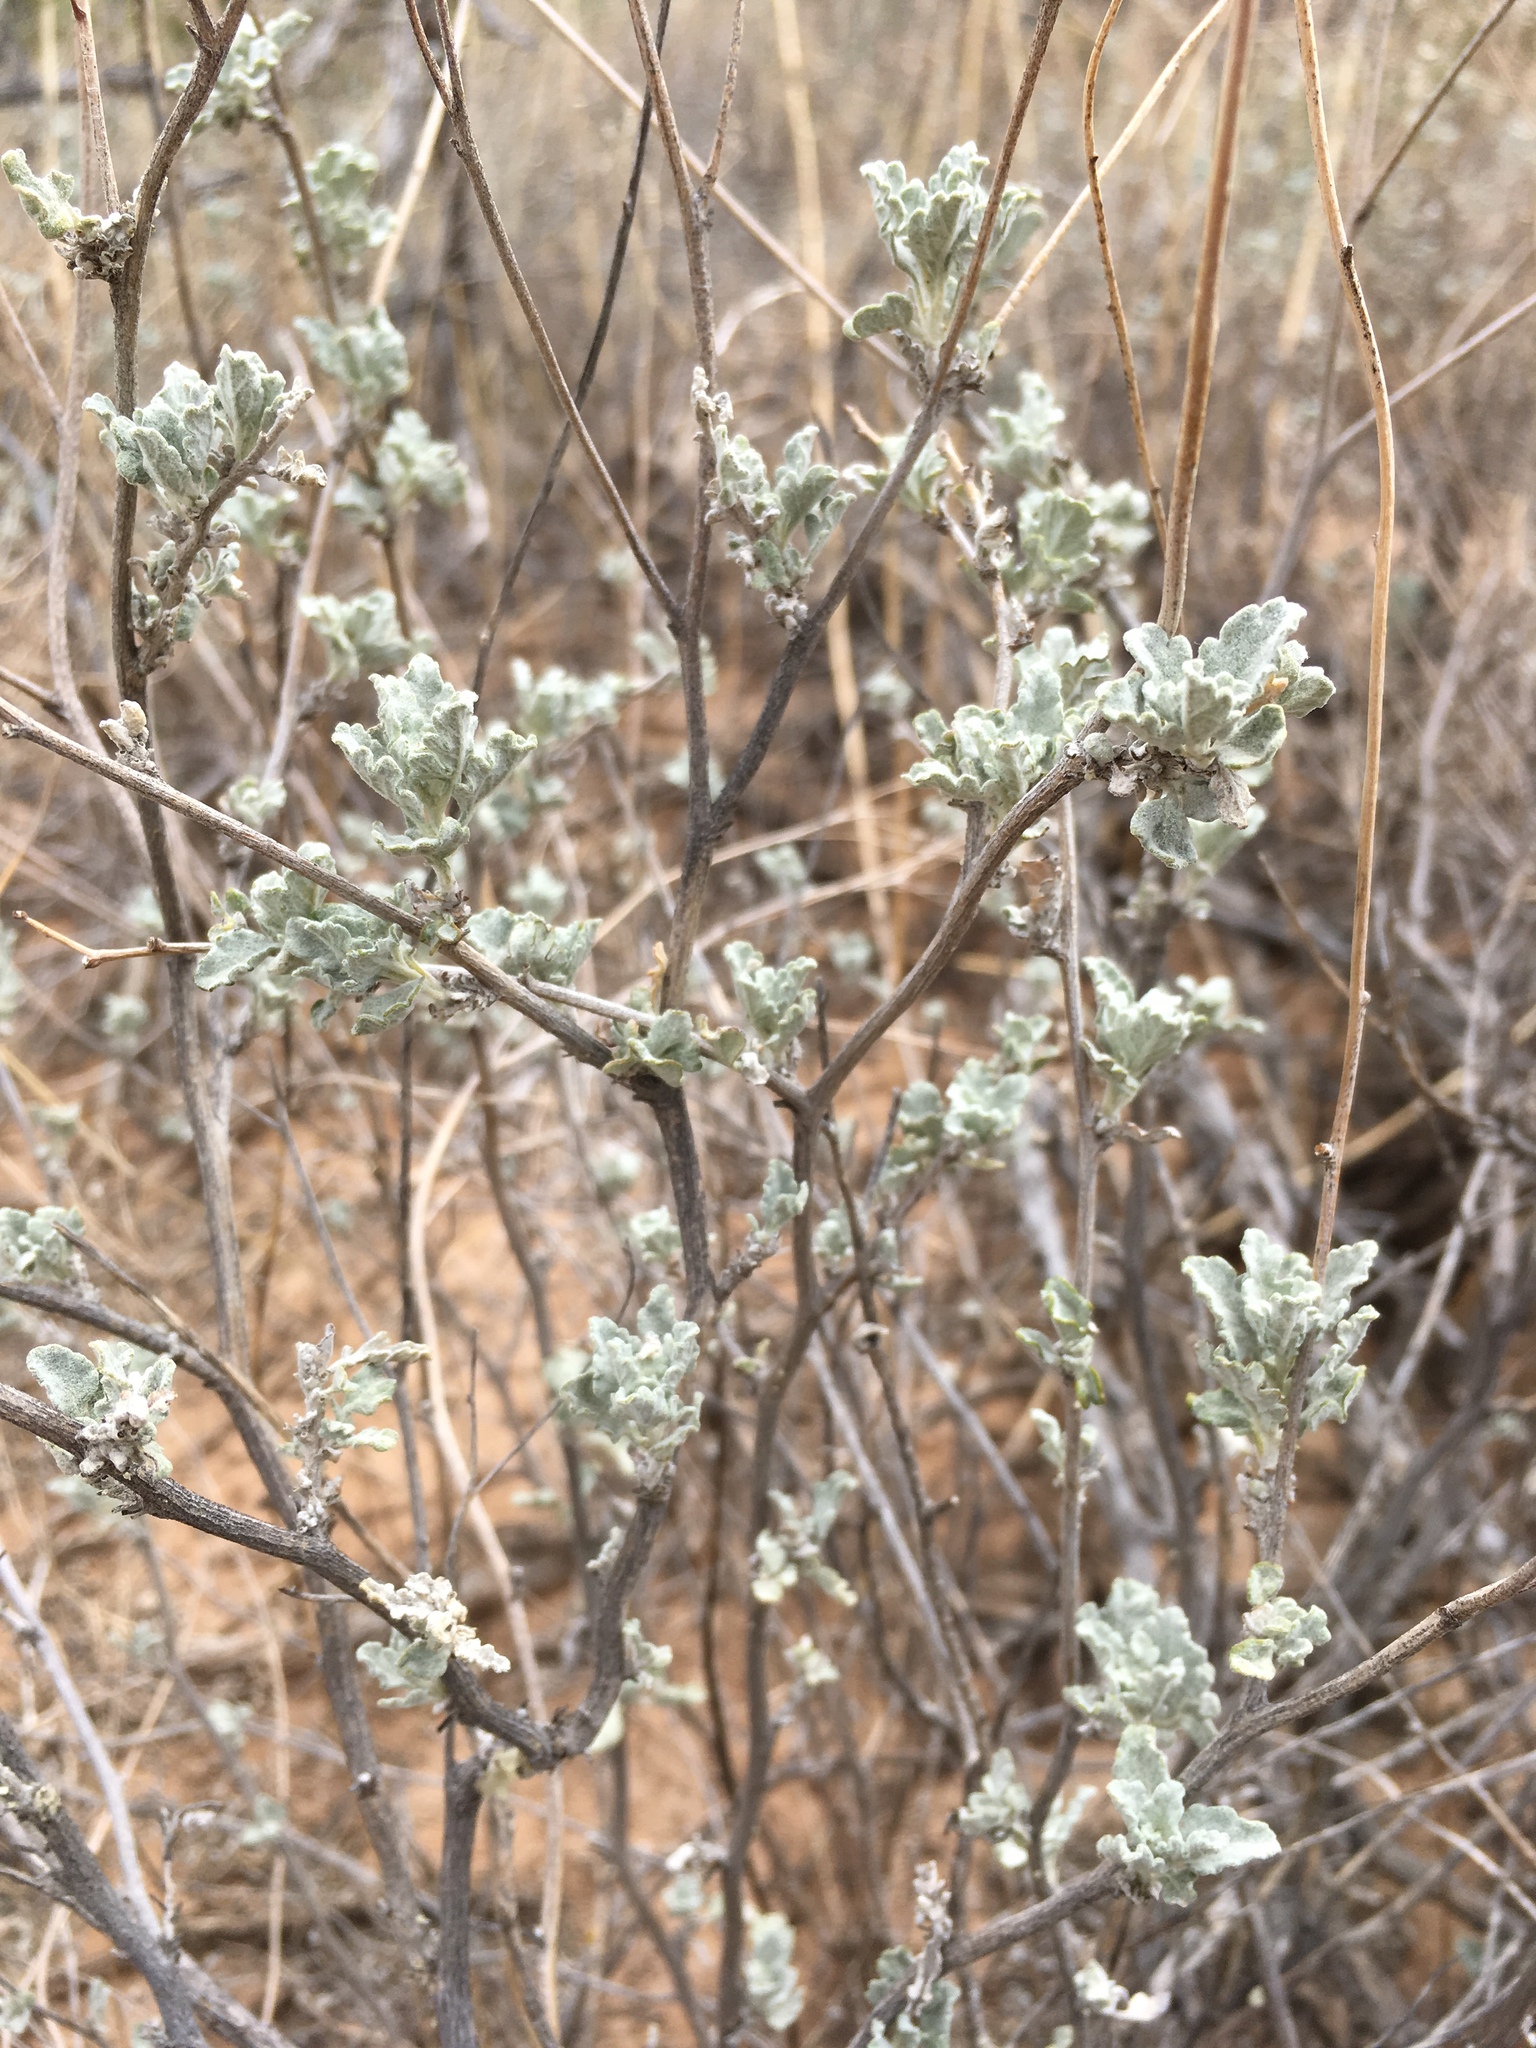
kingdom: Plantae
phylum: Tracheophyta
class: Magnoliopsida
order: Asterales
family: Asteraceae
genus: Parthenium
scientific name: Parthenium incanum
